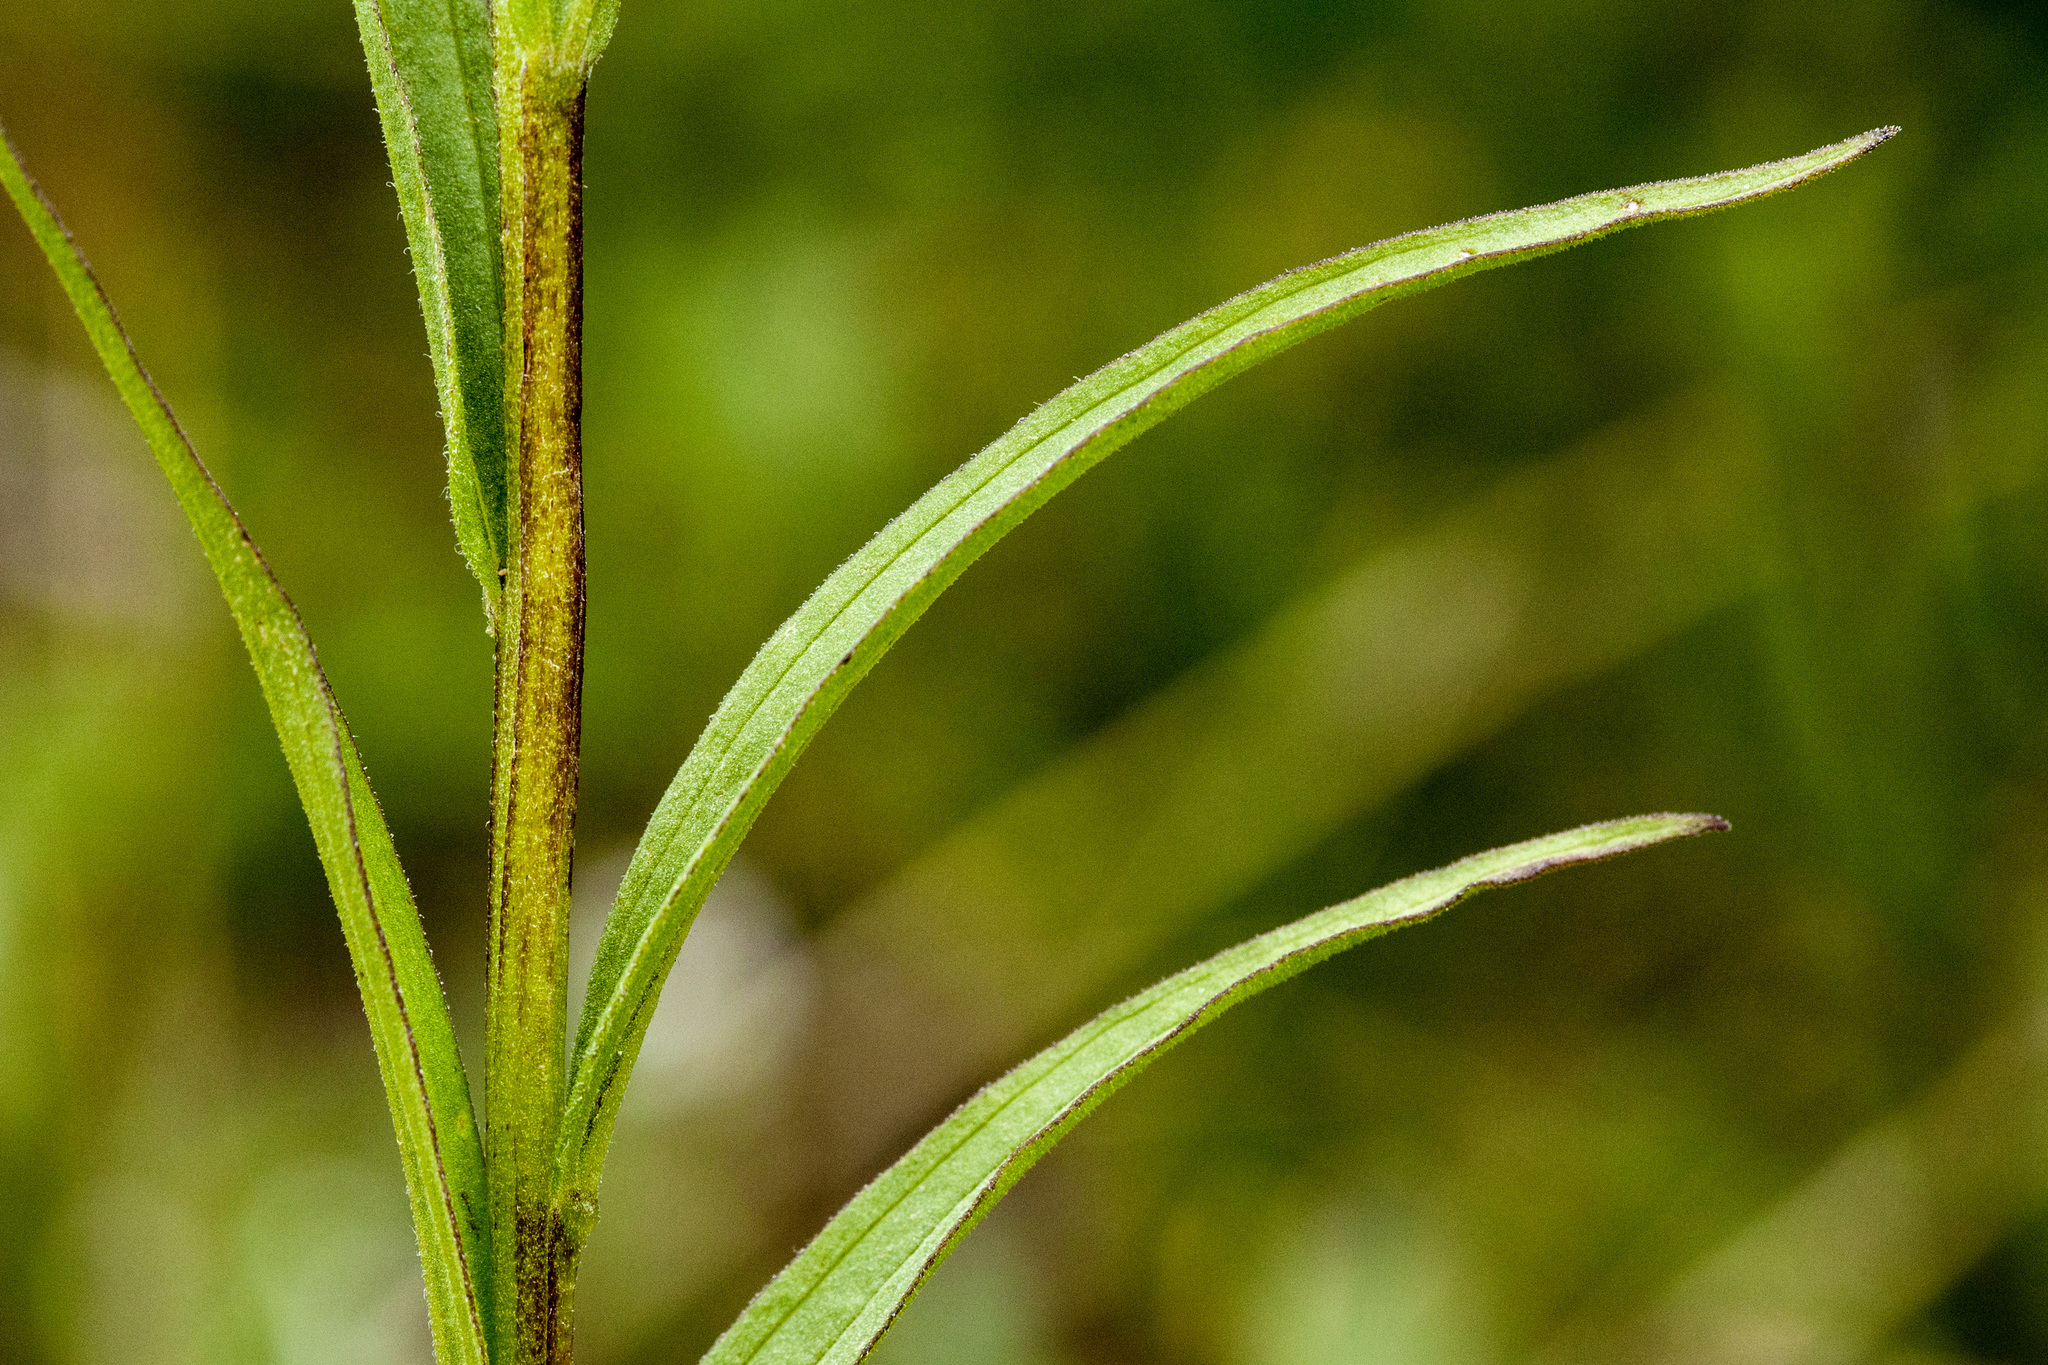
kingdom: Plantae
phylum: Tracheophyta
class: Magnoliopsida
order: Lamiales
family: Orobanchaceae
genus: Castilleja
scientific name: Castilleja miniata
